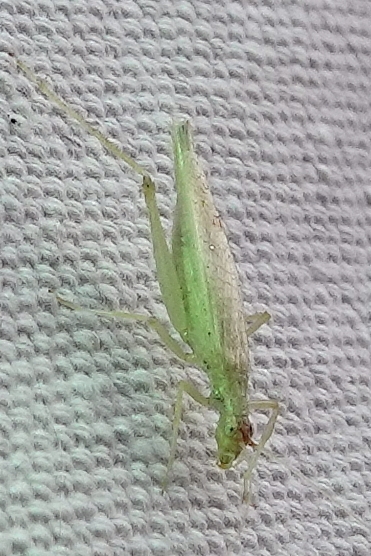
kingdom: Animalia
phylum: Arthropoda
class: Insecta
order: Orthoptera
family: Gryllidae
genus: Oecanthus
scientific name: Oecanthus
